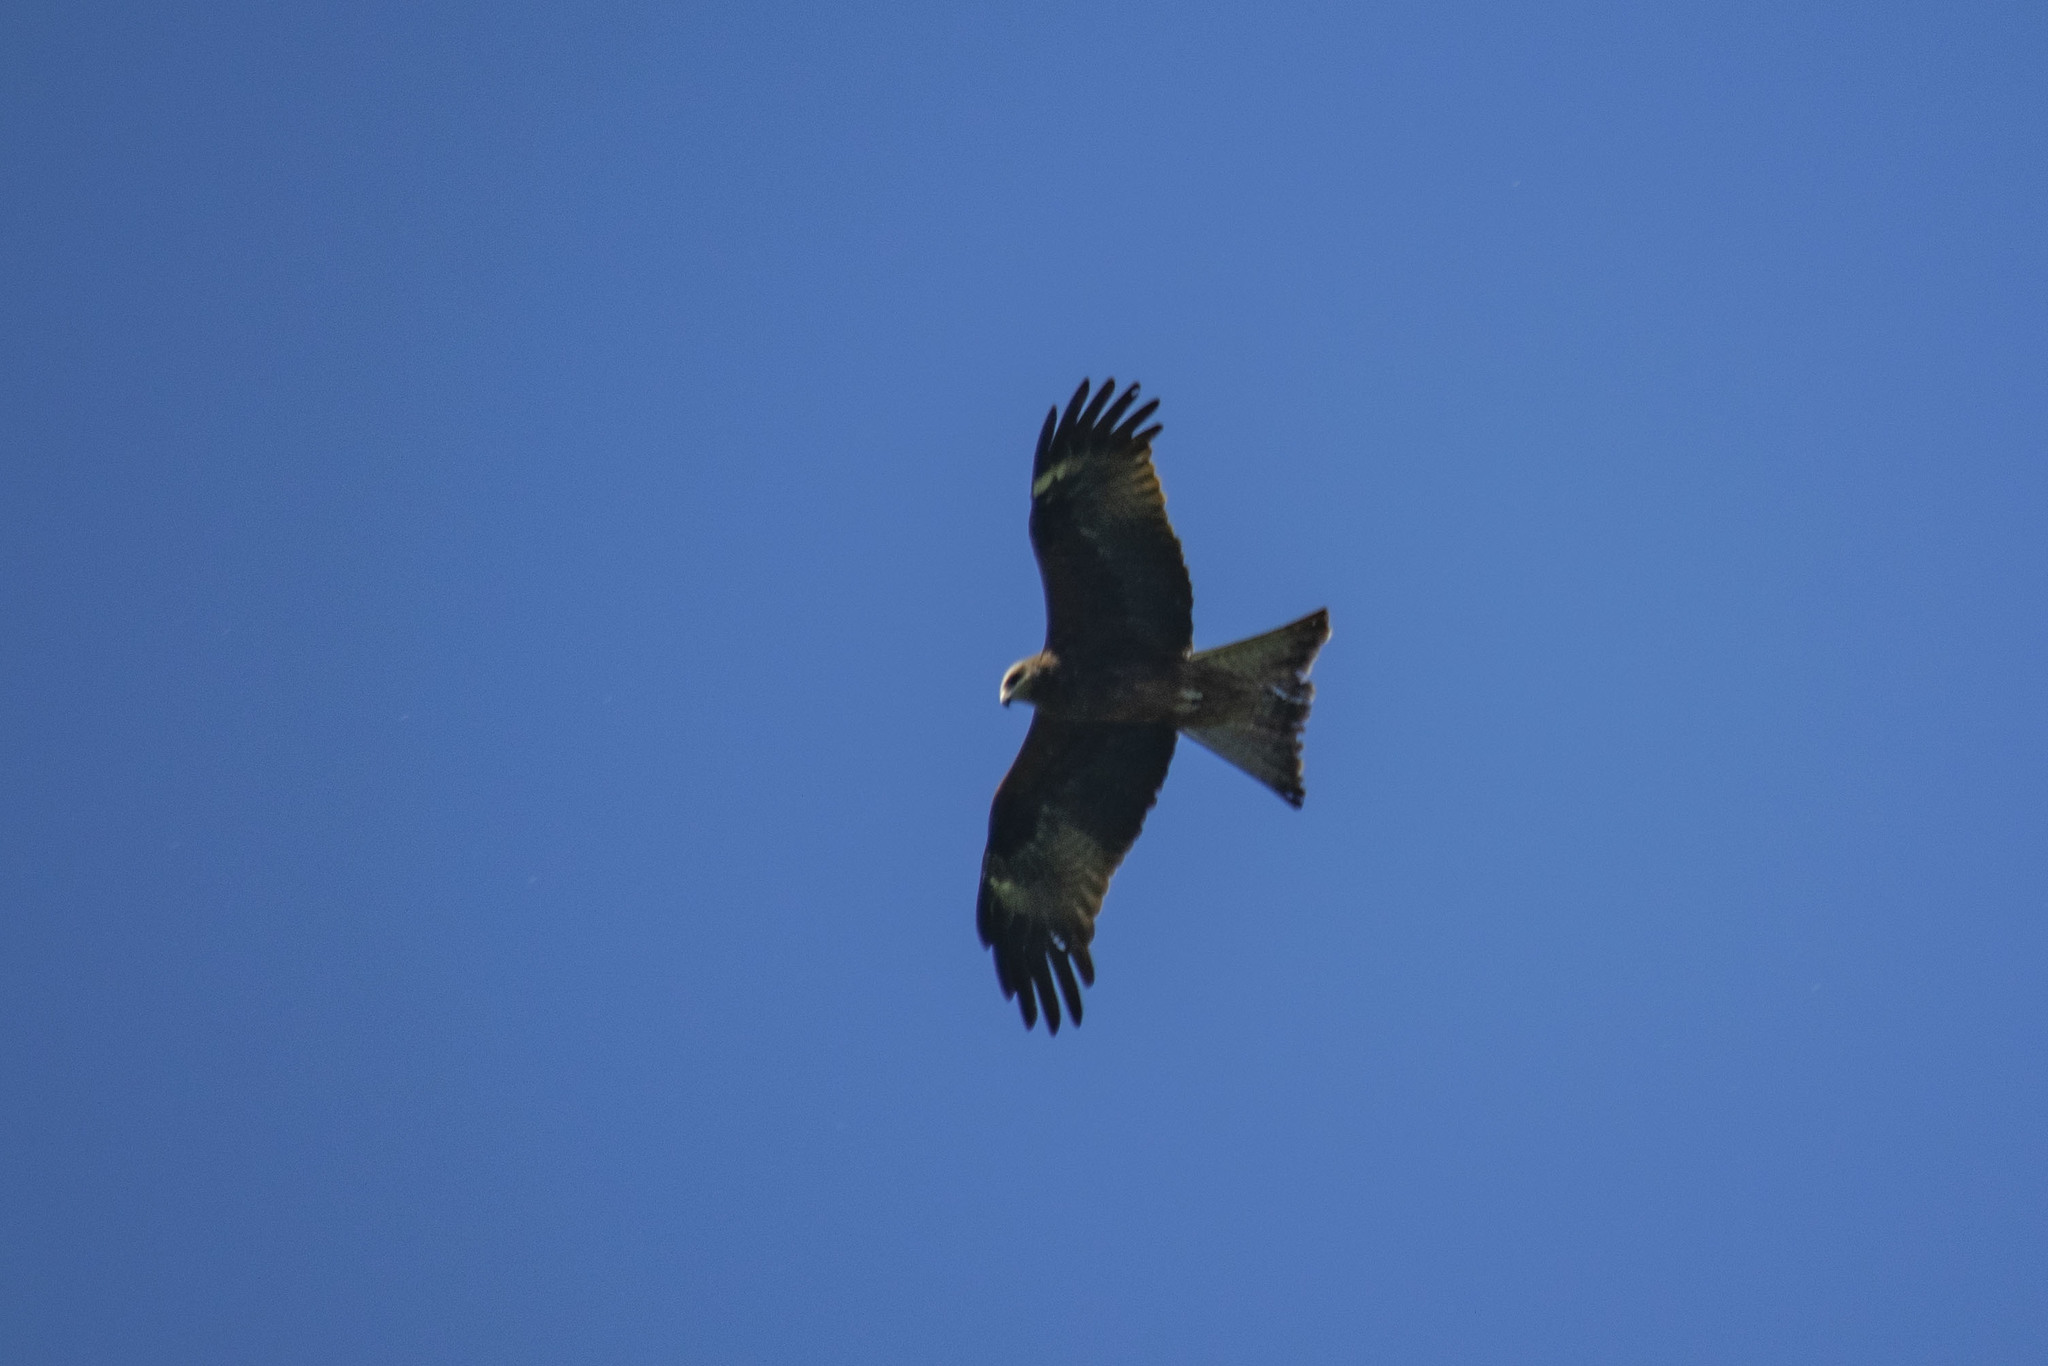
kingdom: Animalia
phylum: Chordata
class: Aves
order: Accipitriformes
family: Accipitridae
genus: Milvus
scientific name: Milvus migrans
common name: Black kite
